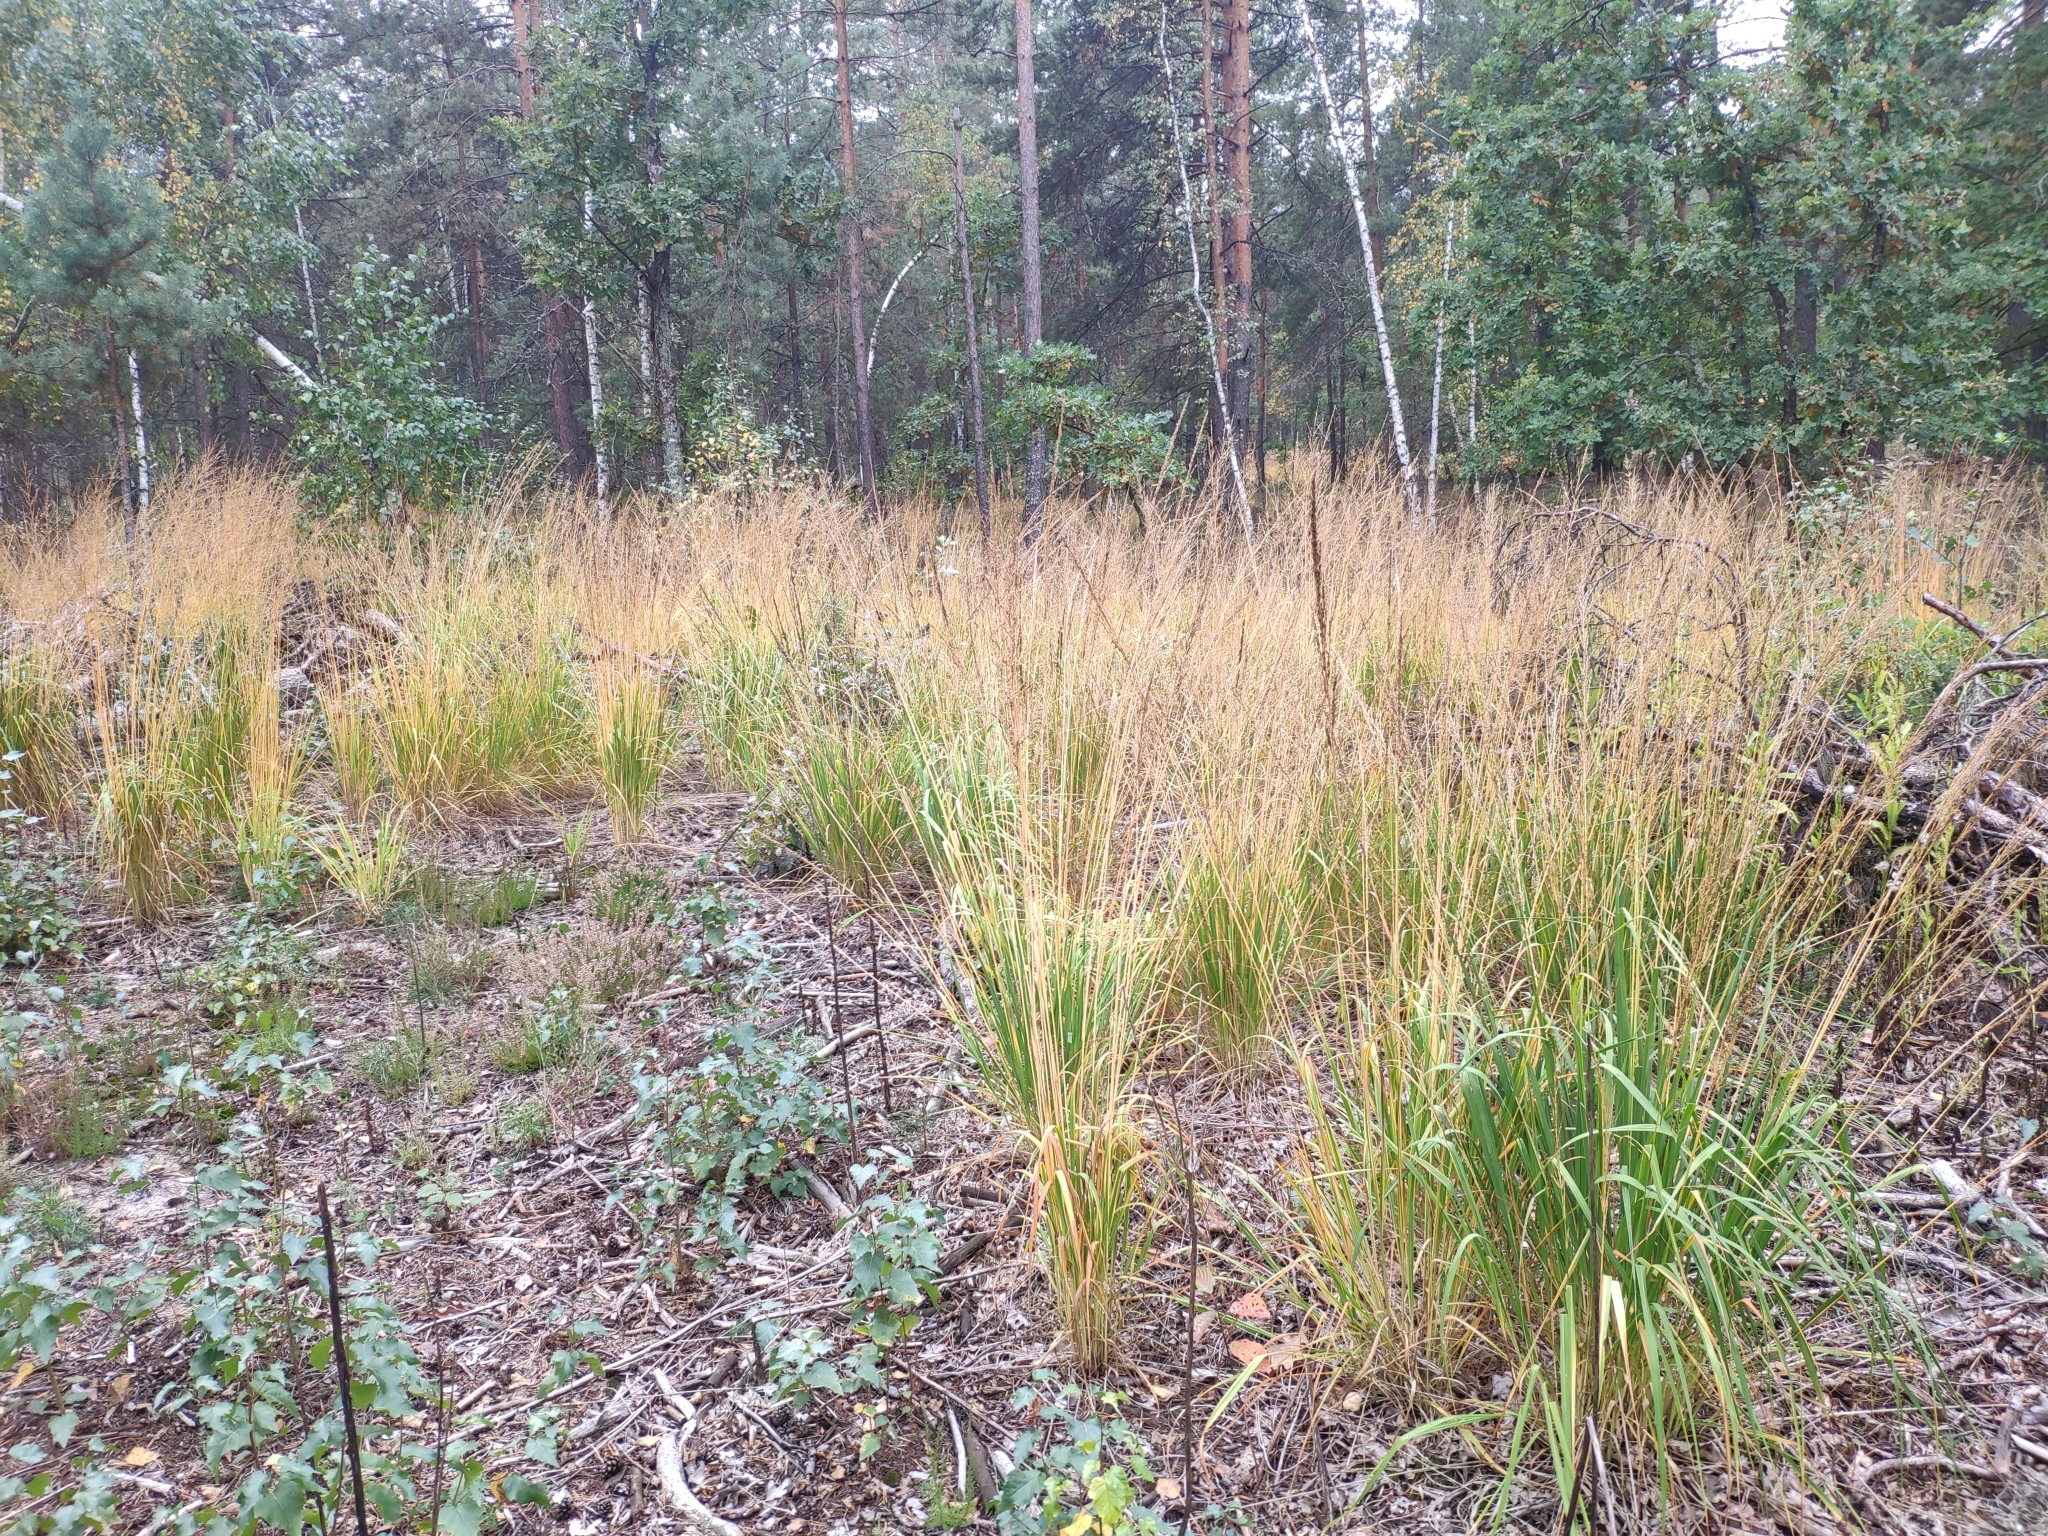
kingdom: Plantae
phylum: Tracheophyta
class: Liliopsida
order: Poales
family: Poaceae
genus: Molinia
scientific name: Molinia caerulea
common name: Purple moor-grass
